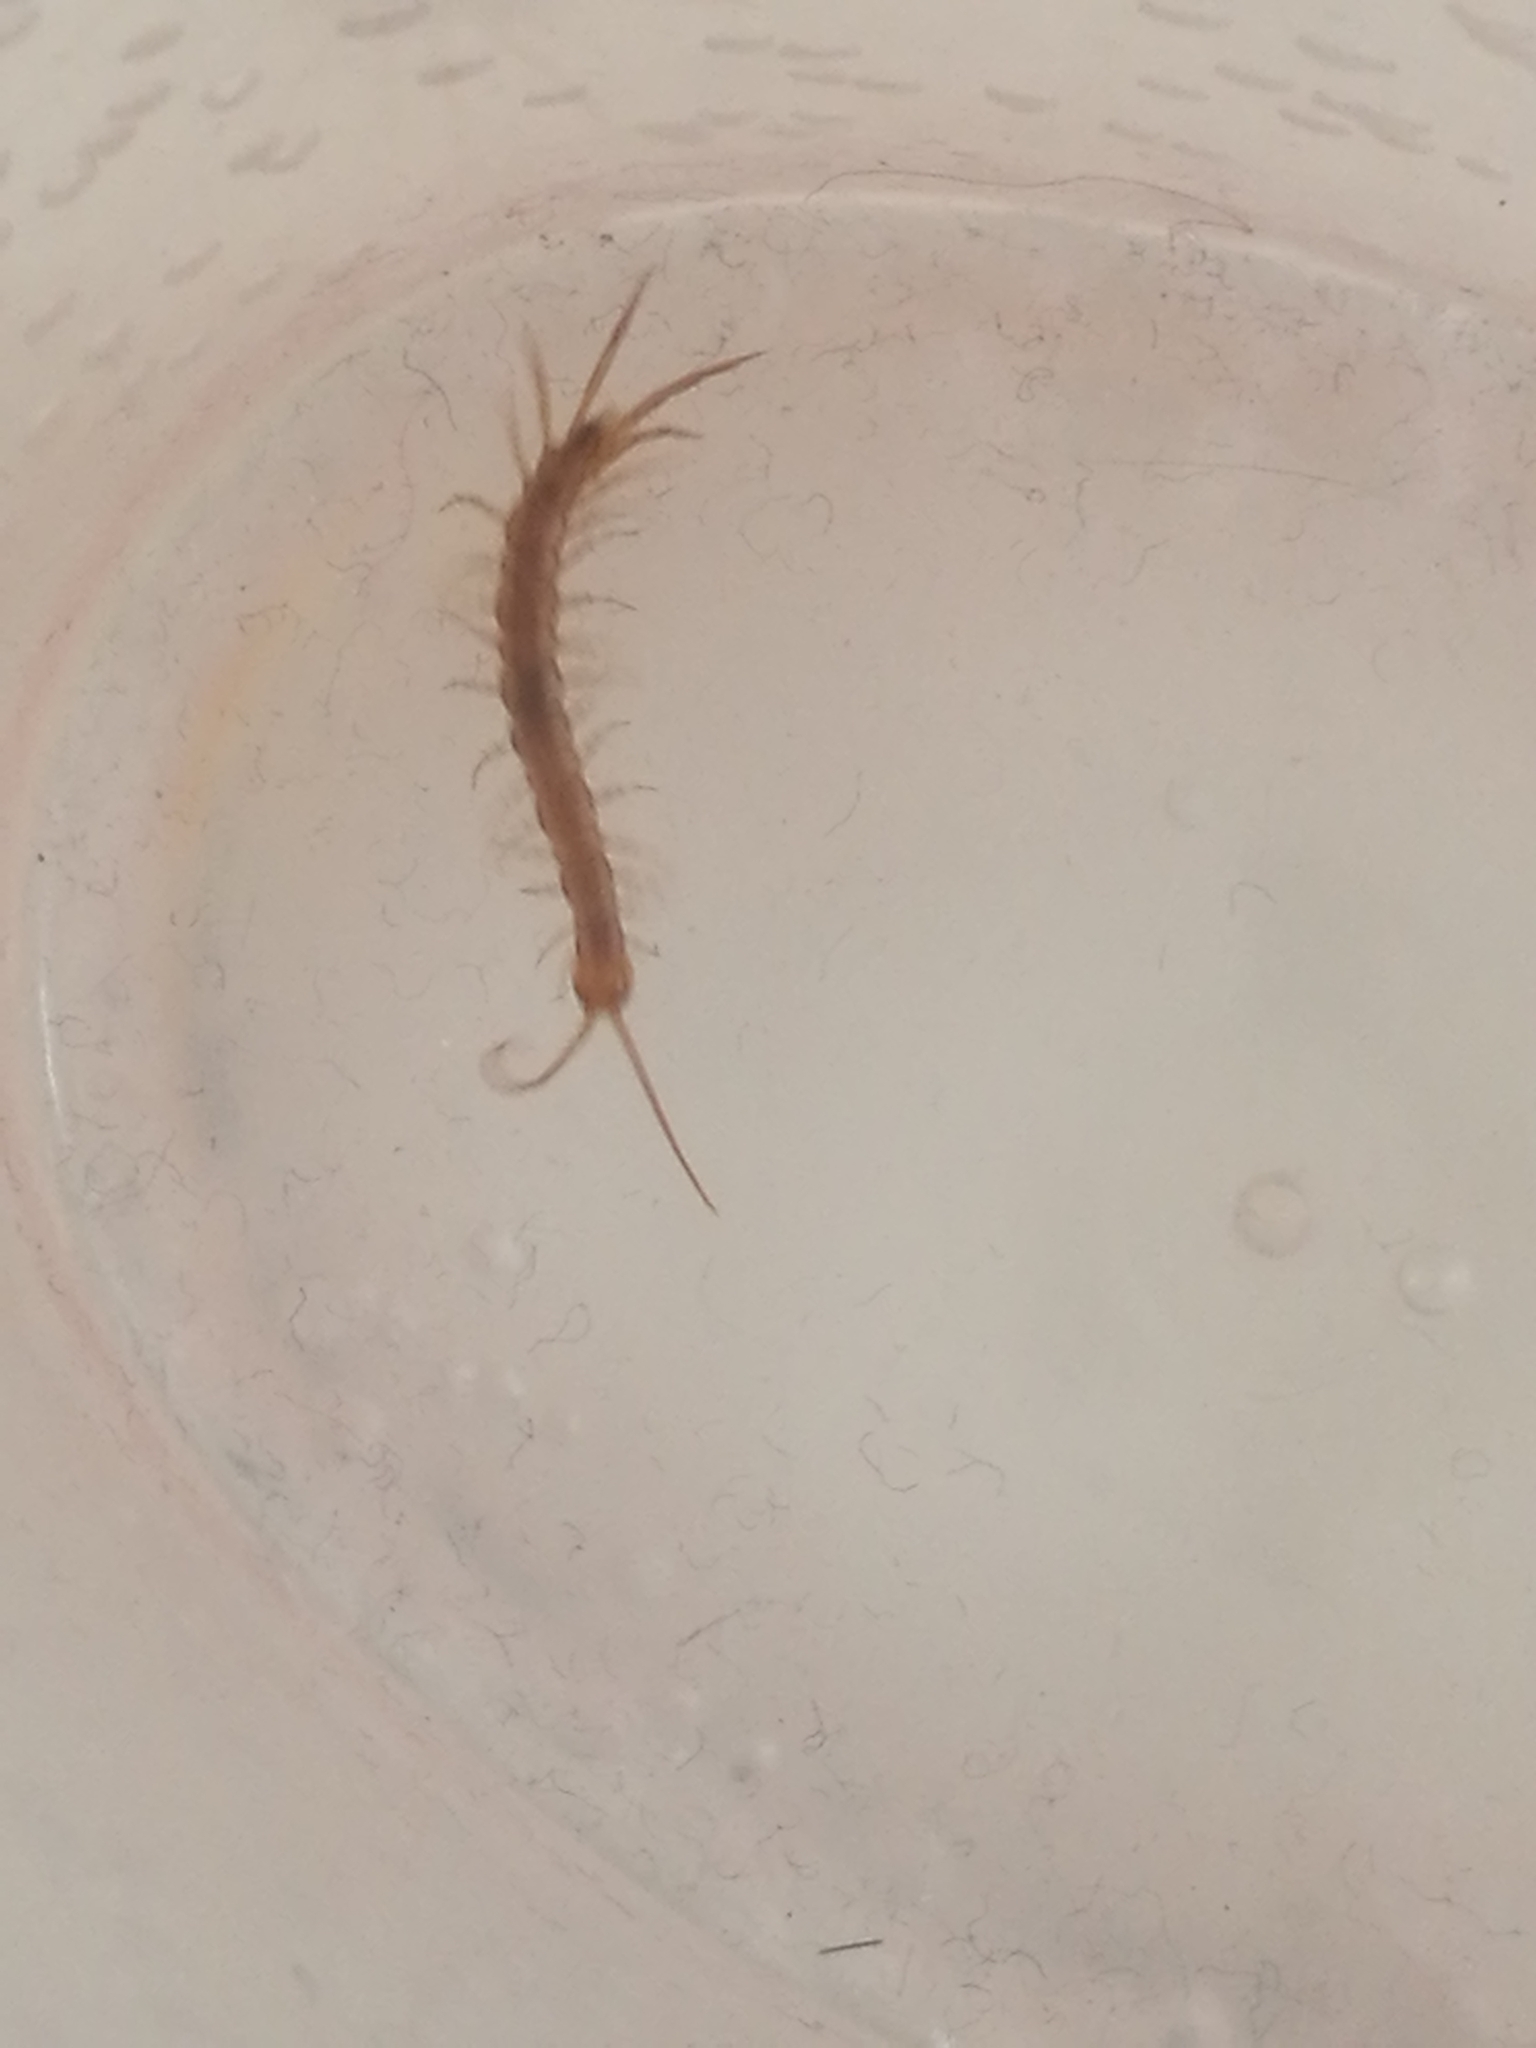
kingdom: Animalia
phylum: Arthropoda
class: Chilopoda
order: Lithobiomorpha
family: Lithobiidae
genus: Lithobius
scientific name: Lithobius melanops
